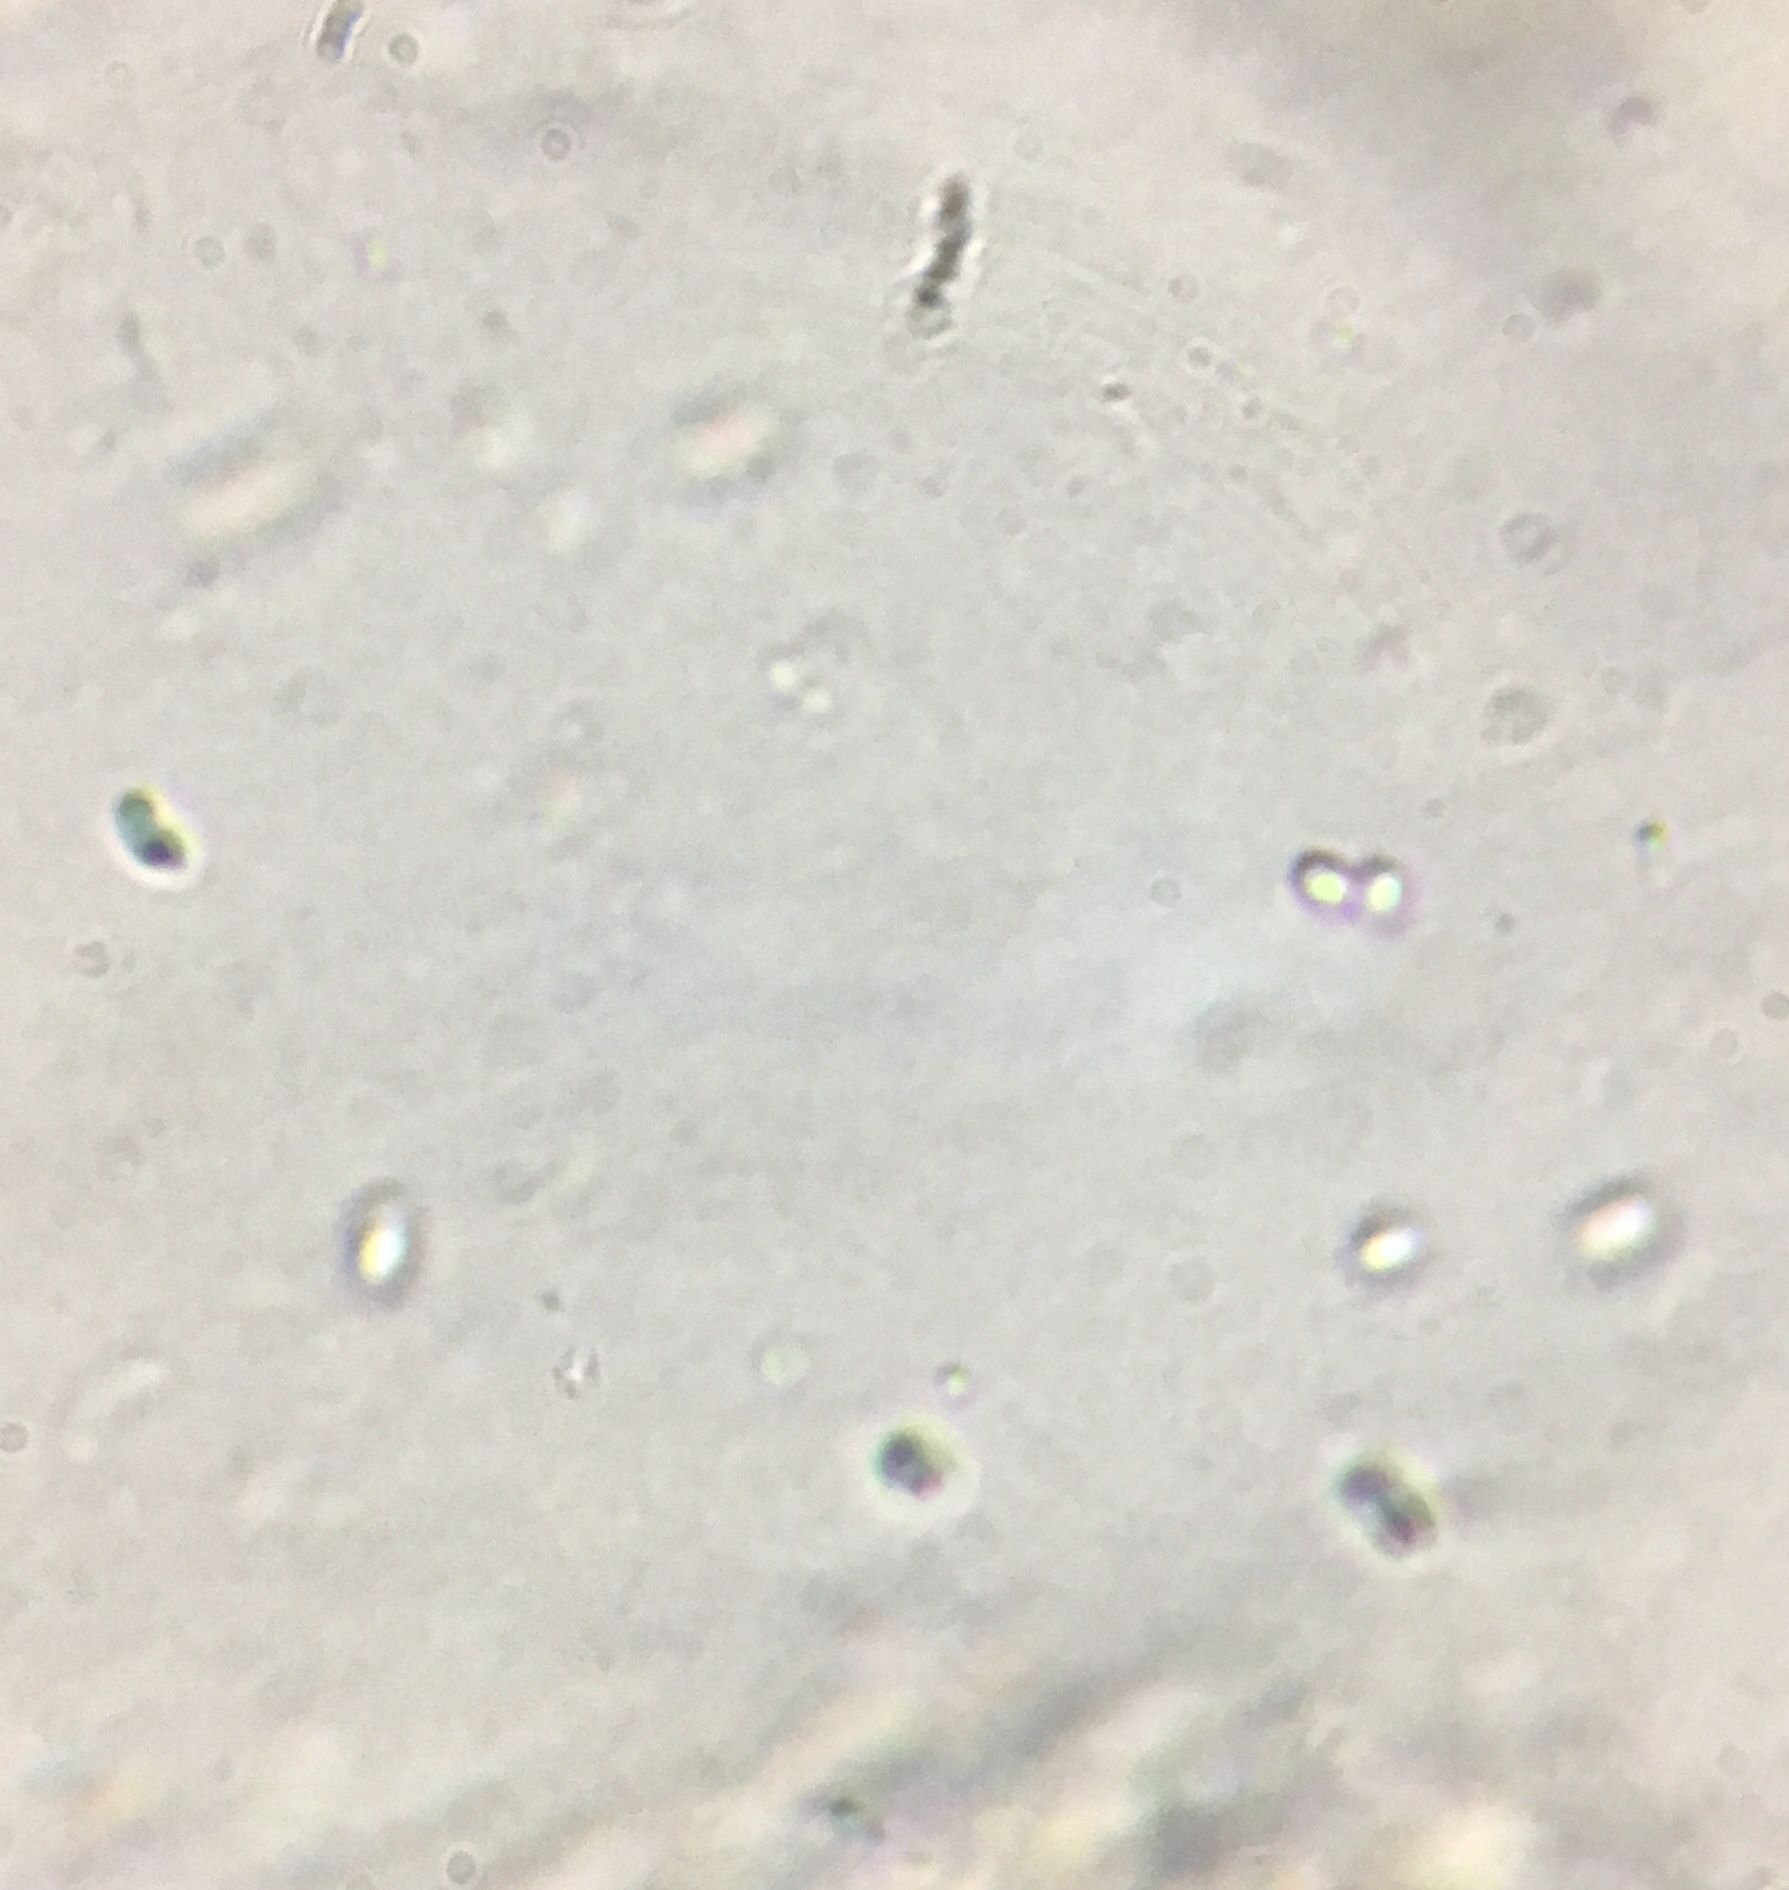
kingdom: Fungi
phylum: Ascomycota
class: Orbiliomycetes
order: Orbiliales
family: Orbiliaceae
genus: Orbilia
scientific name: Orbilia xanthostigma
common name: Common glasscup
